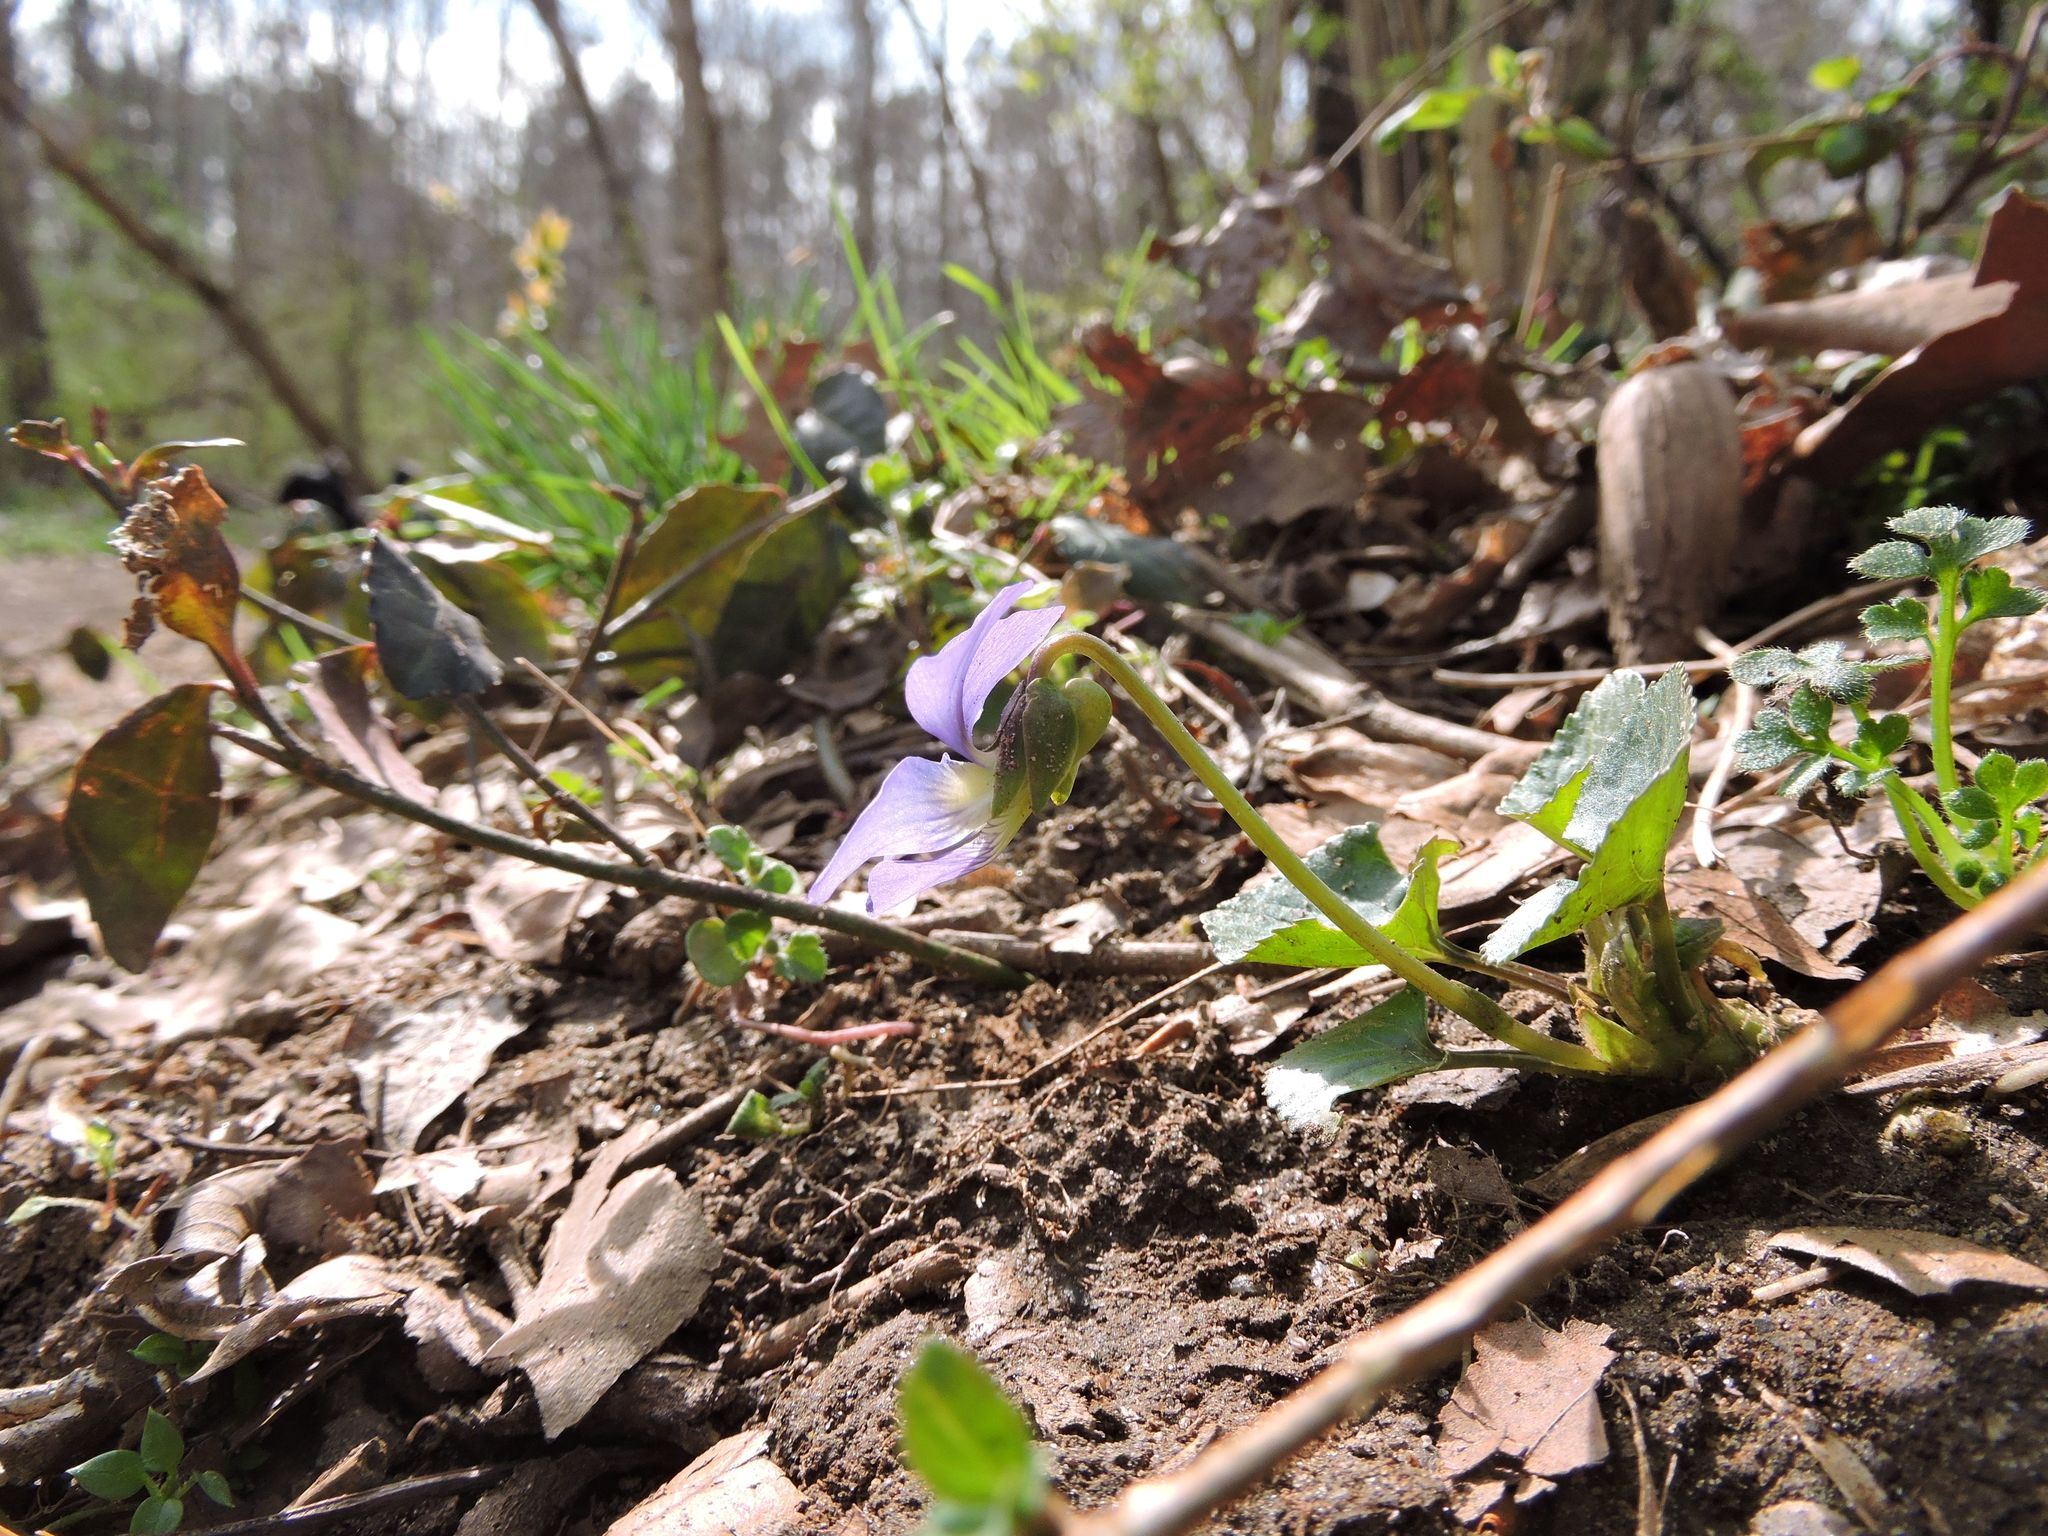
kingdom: Plantae
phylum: Tracheophyta
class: Magnoliopsida
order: Malpighiales
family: Violaceae
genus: Viola
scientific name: Viola sororia
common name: Dooryard violet
